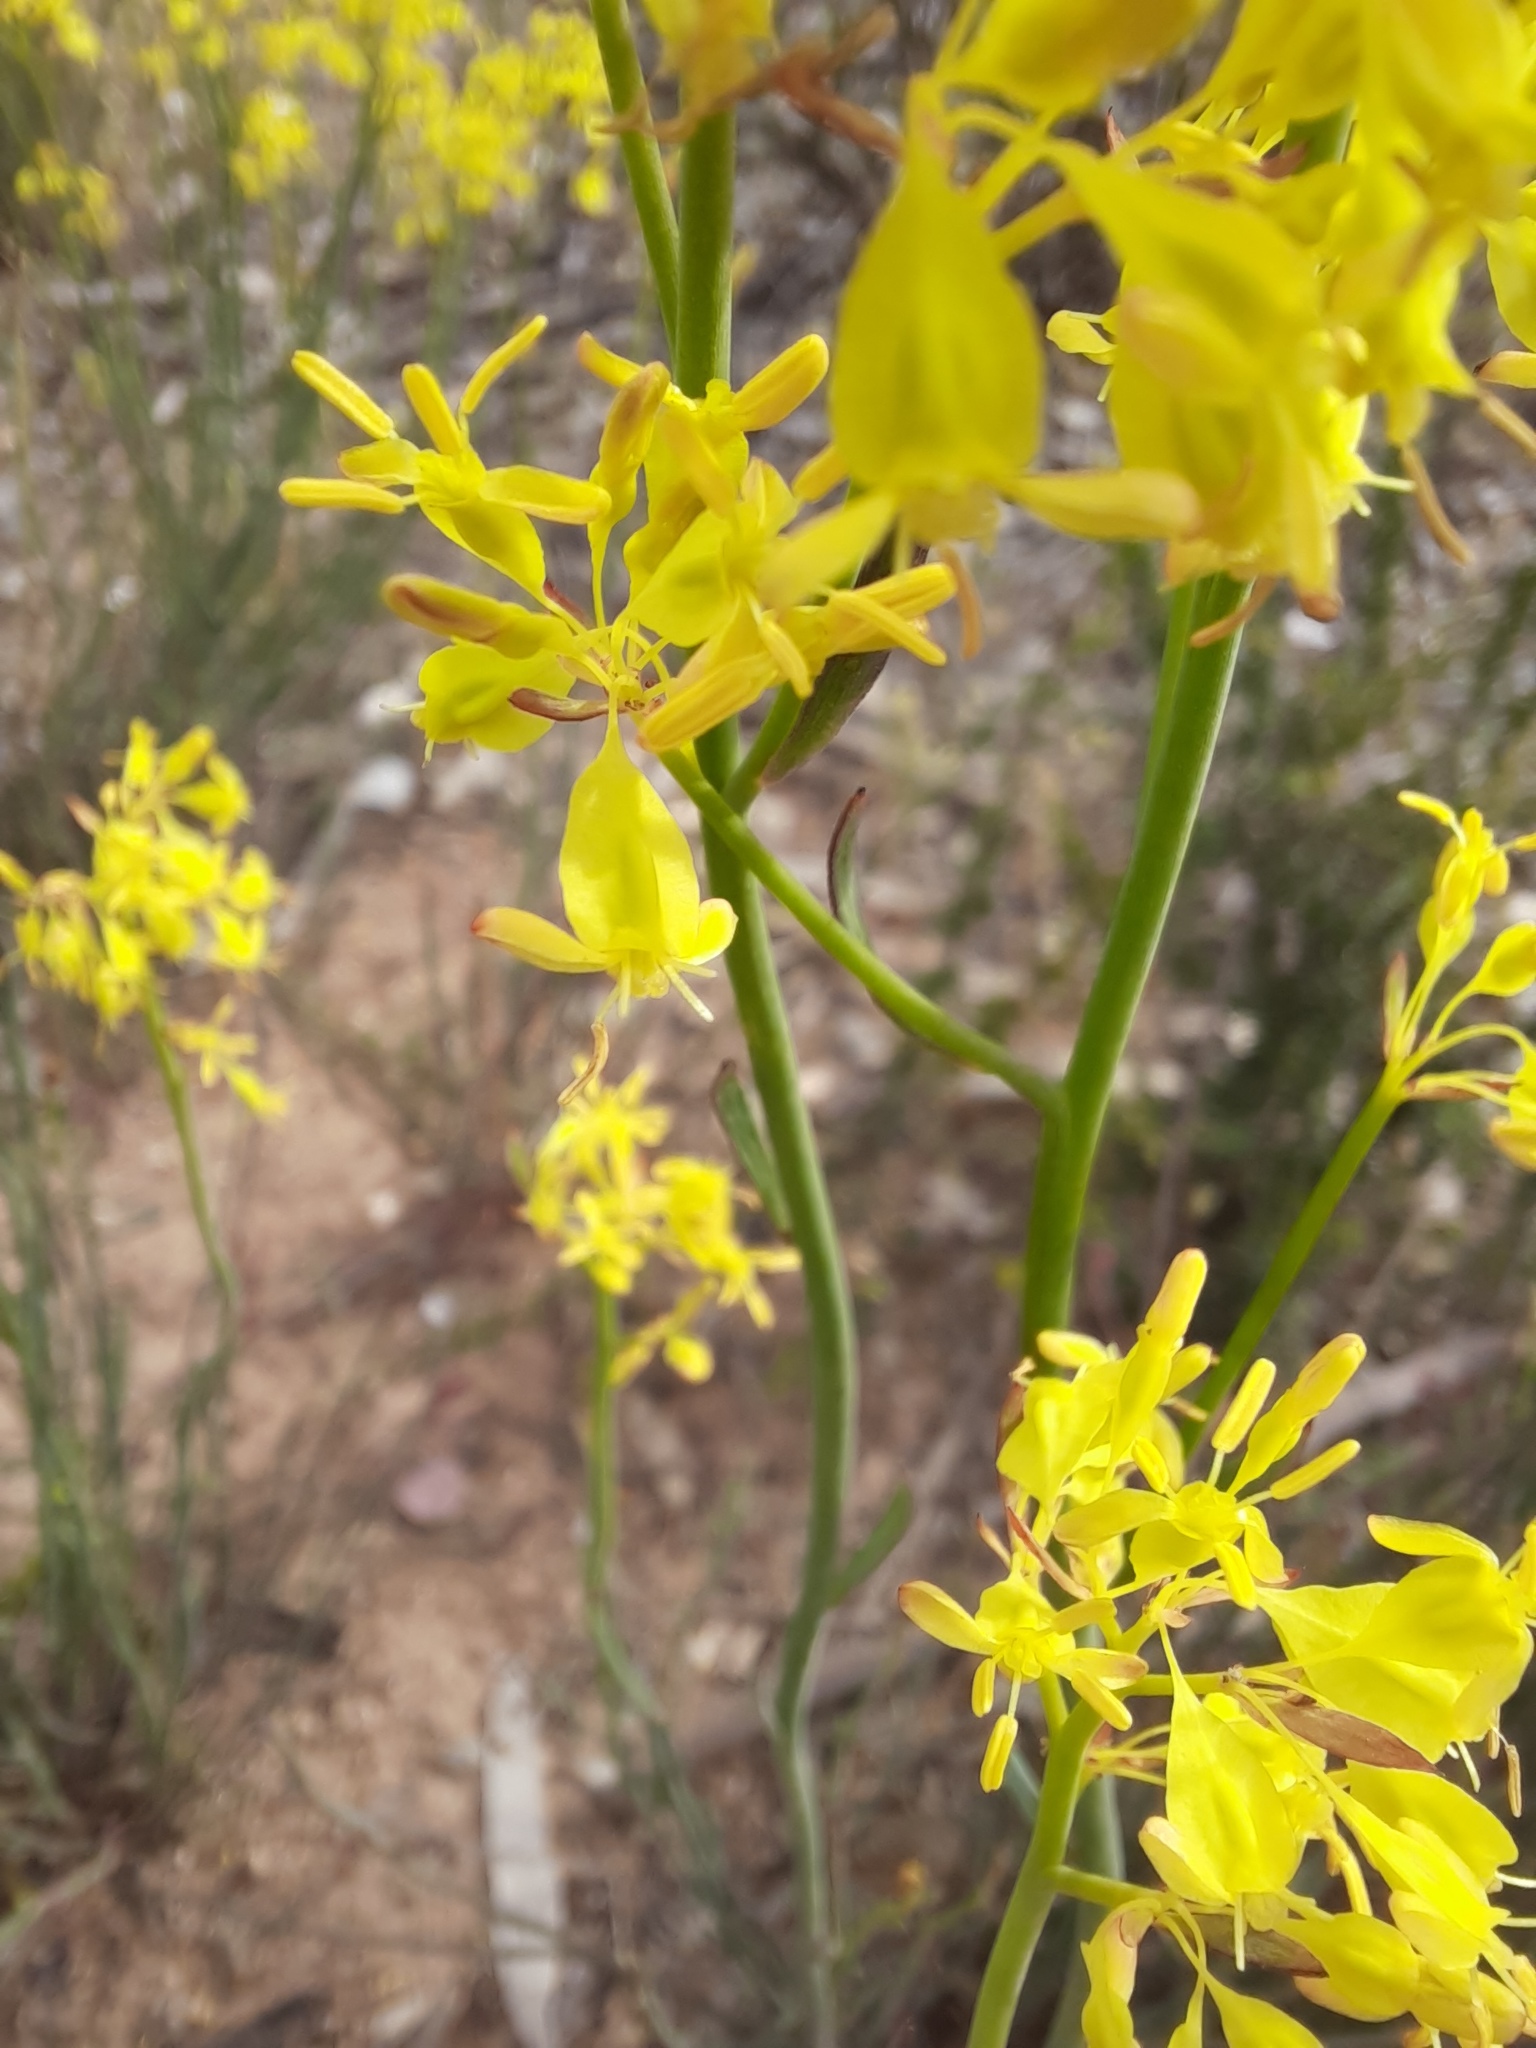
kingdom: Plantae
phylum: Tracheophyta
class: Magnoliopsida
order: Saxifragales
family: Haloragaceae
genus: Glischrocaryon
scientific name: Glischrocaryon behrii
